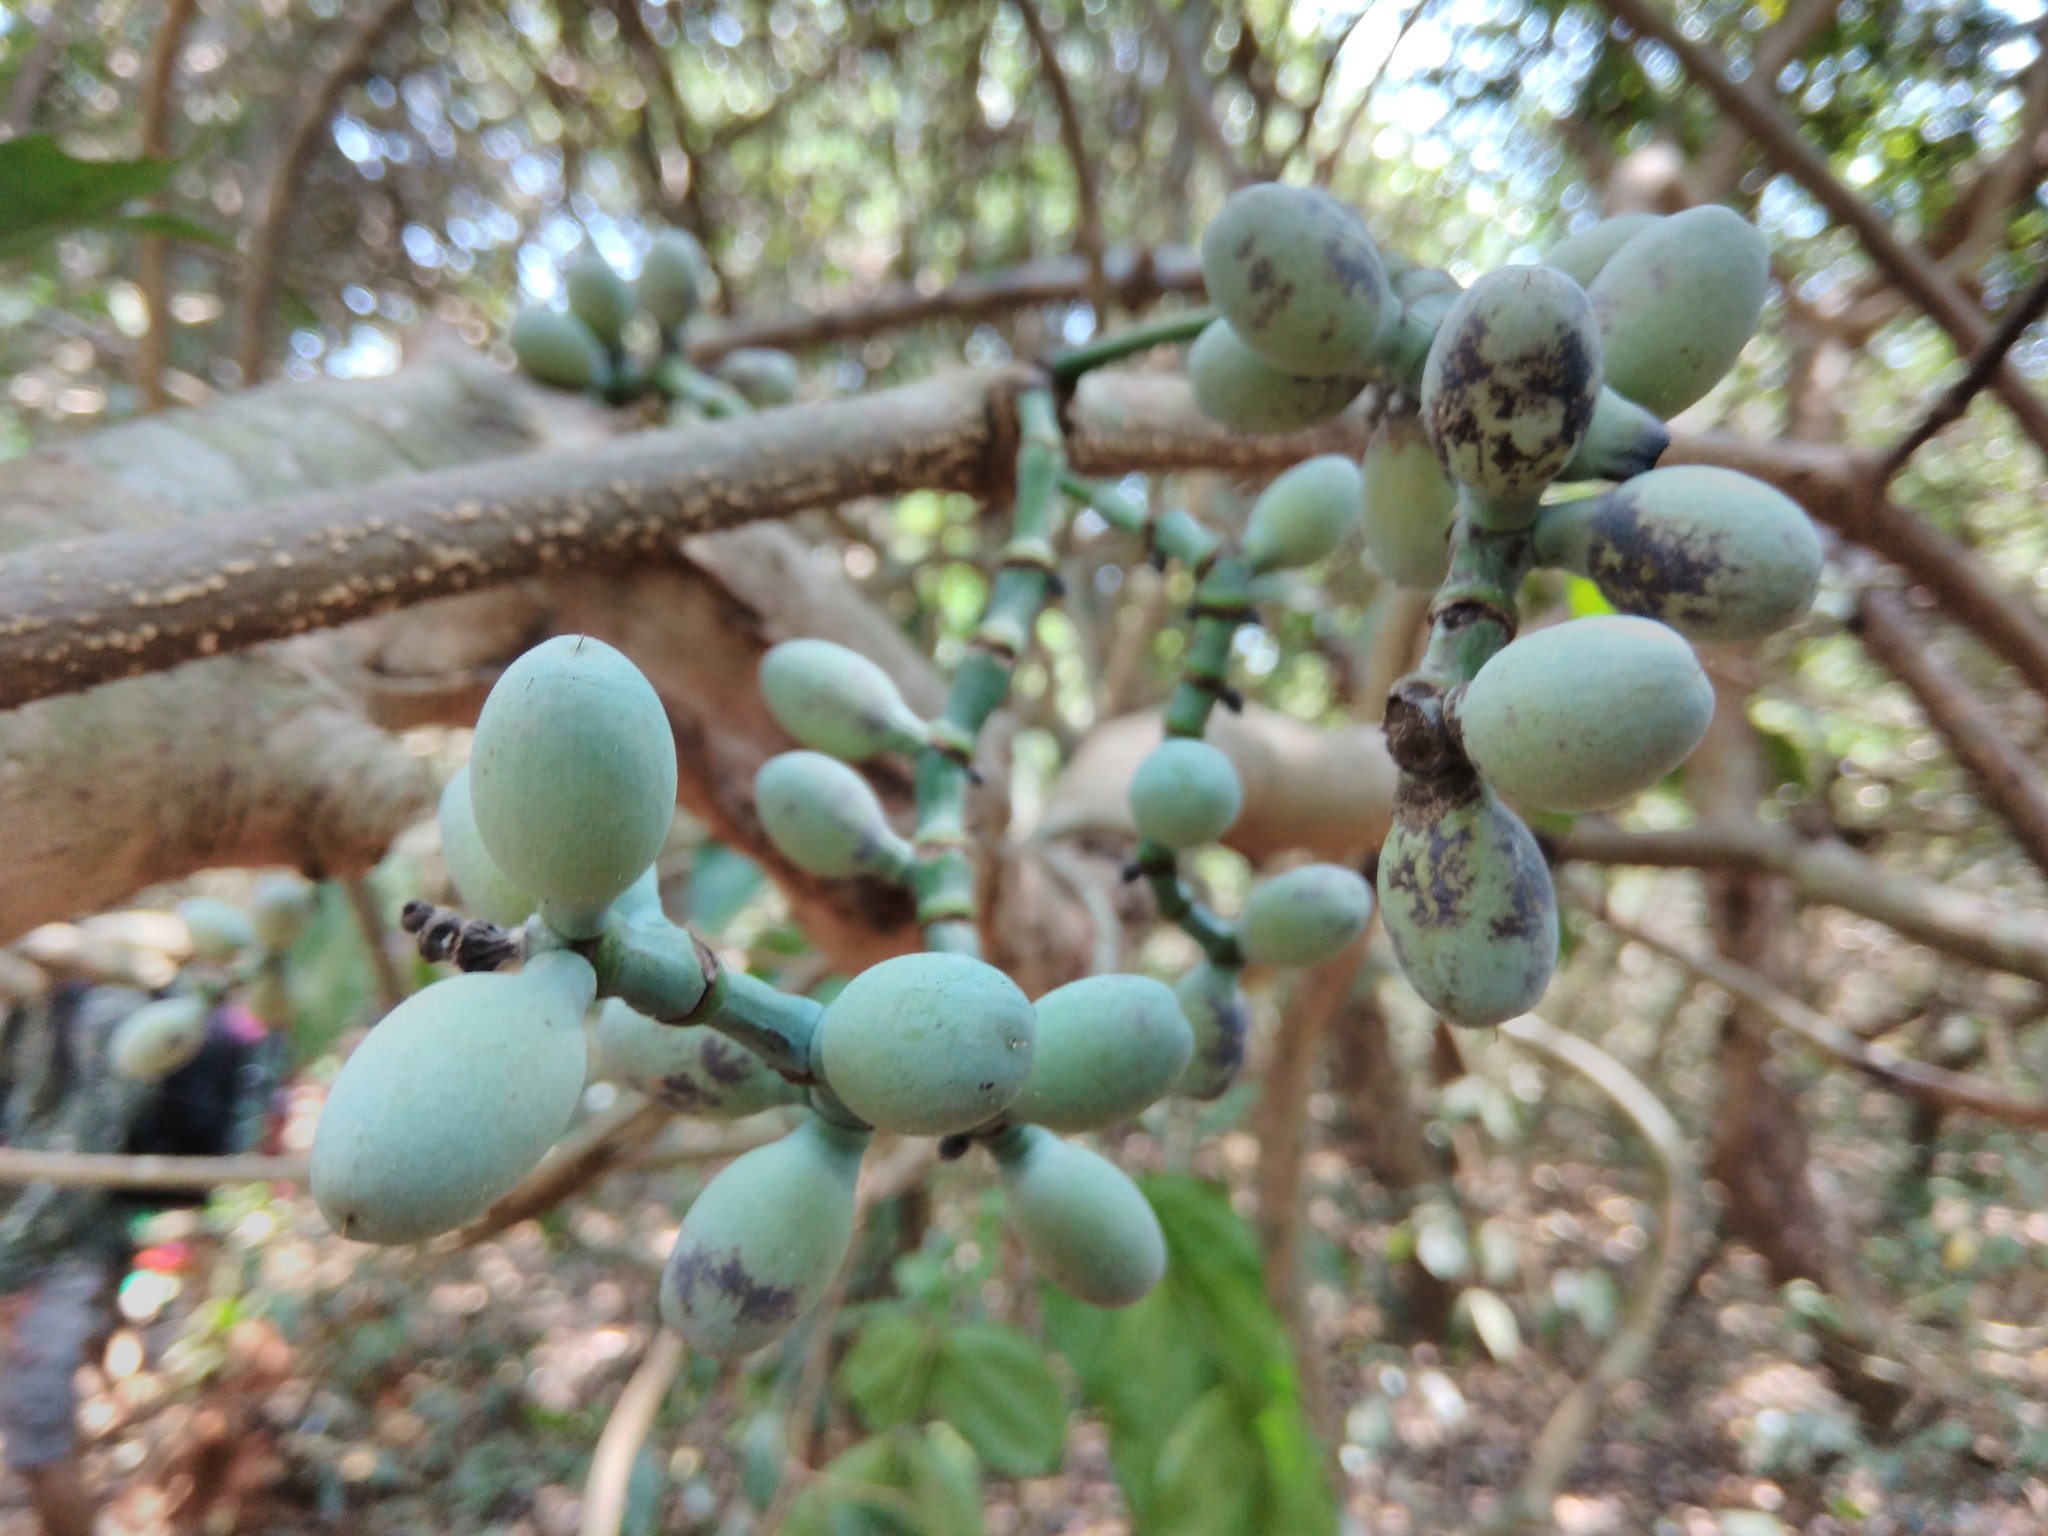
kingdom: Plantae
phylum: Tracheophyta
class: Gnetopsida
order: Gnetales
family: Gnetaceae
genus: Gnetum
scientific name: Gnetum edule
